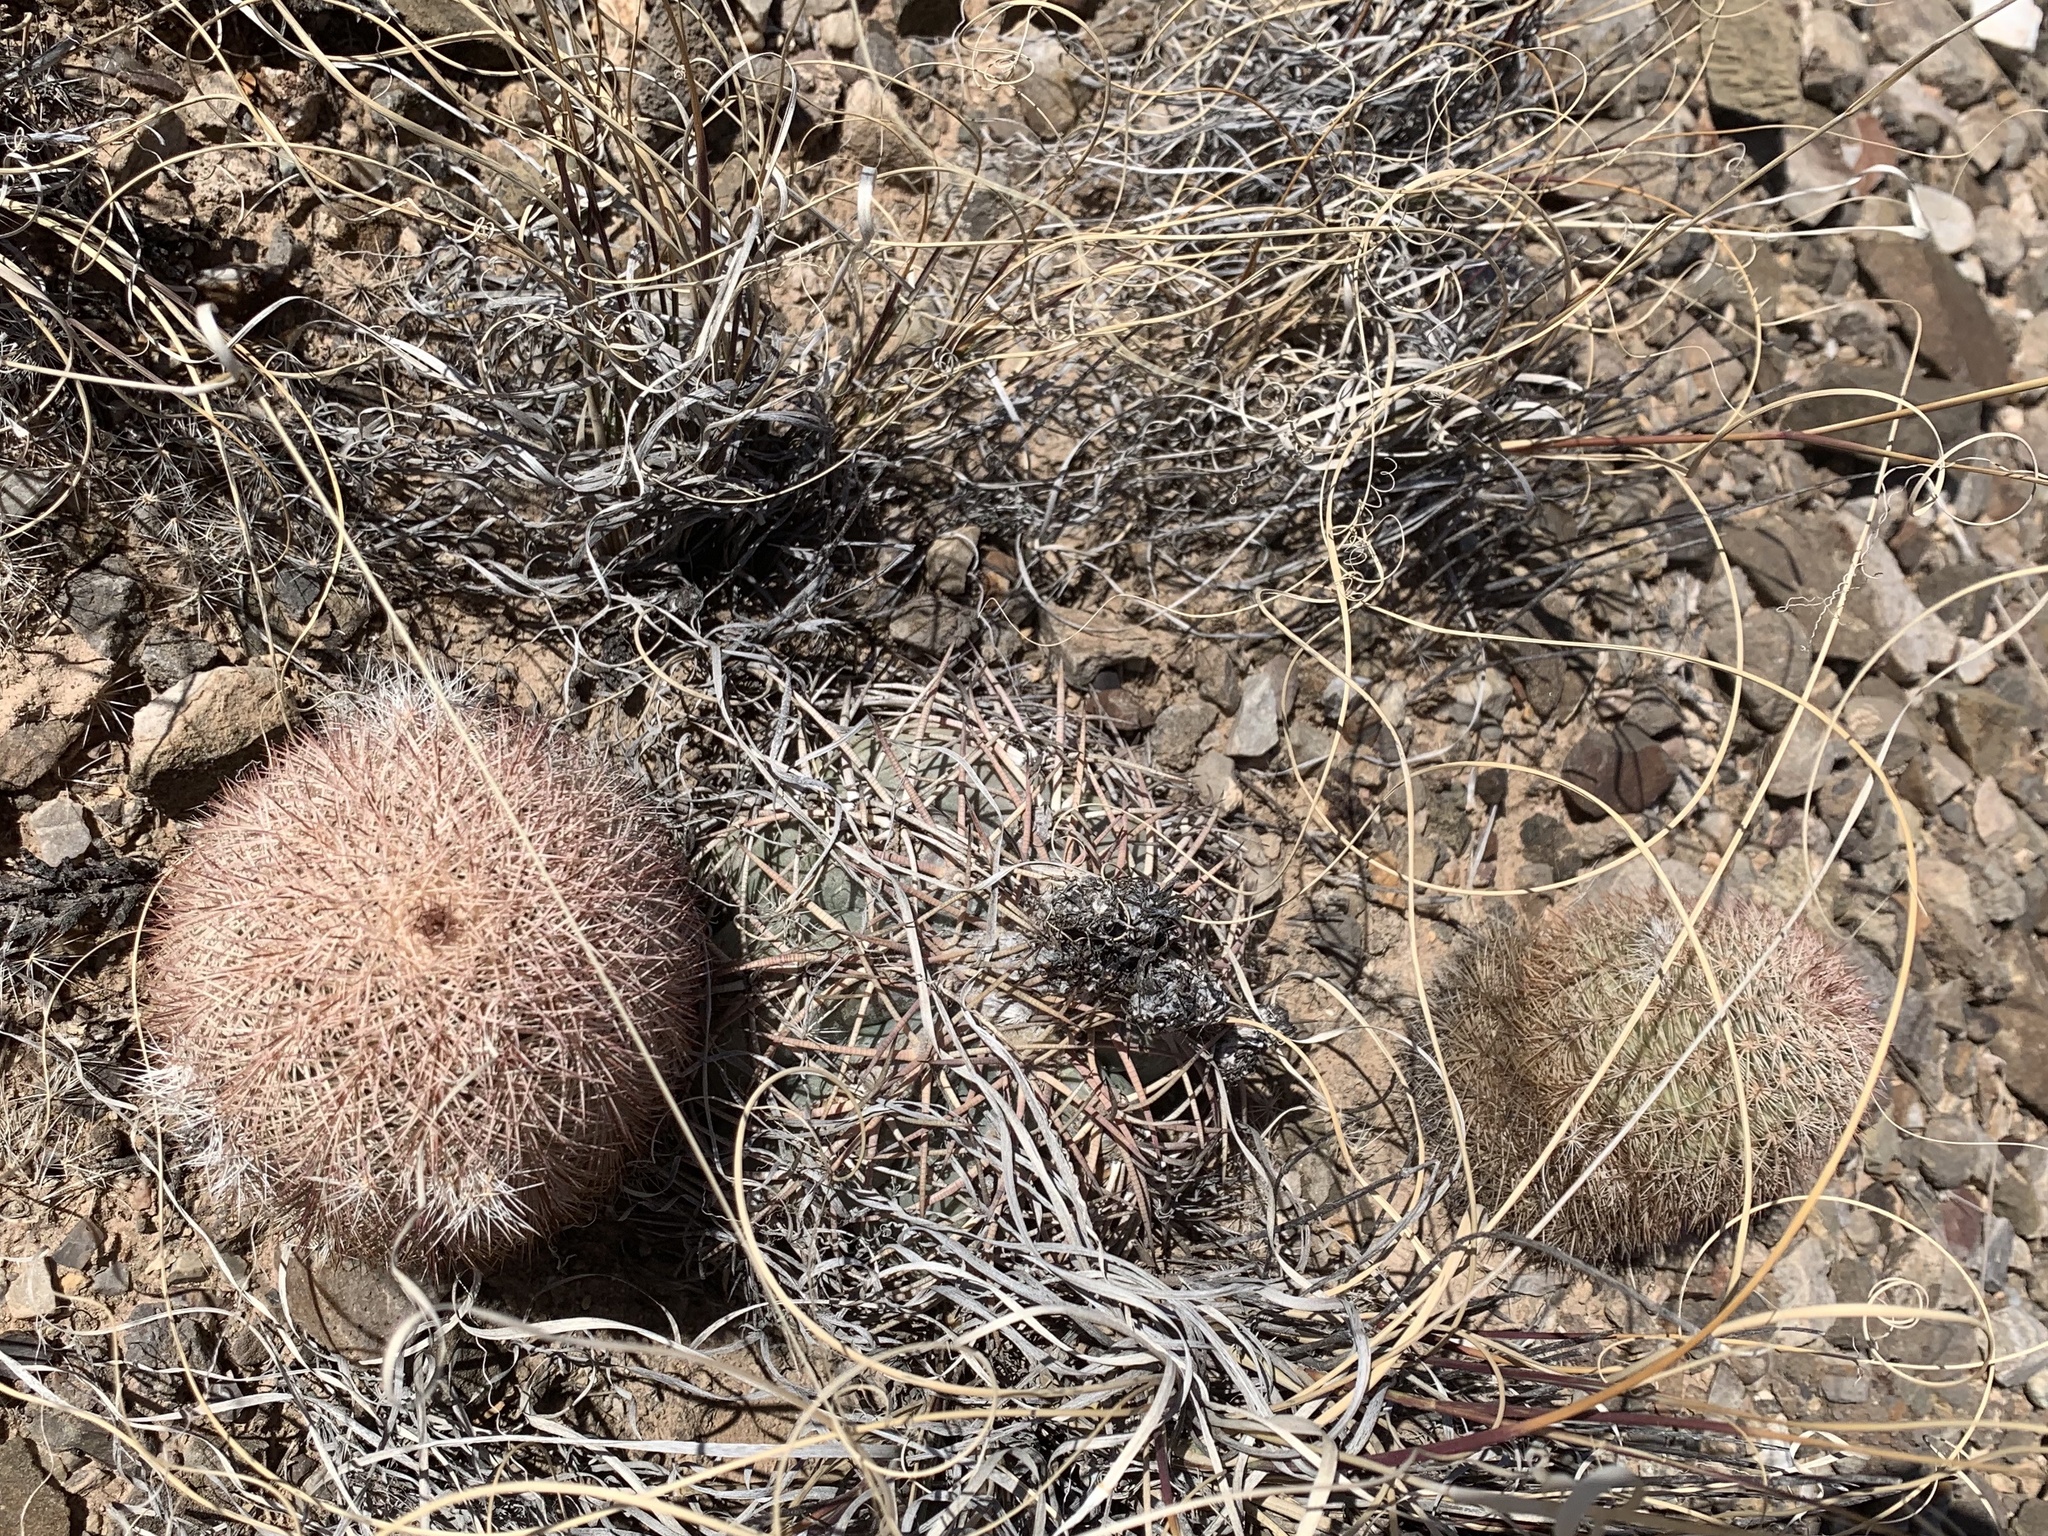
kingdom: Plantae
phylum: Tracheophyta
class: Magnoliopsida
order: Caryophyllales
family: Cactaceae
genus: Echinocereus
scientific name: Echinocereus dasyacanthus
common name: Spiny hedgehog cactus
